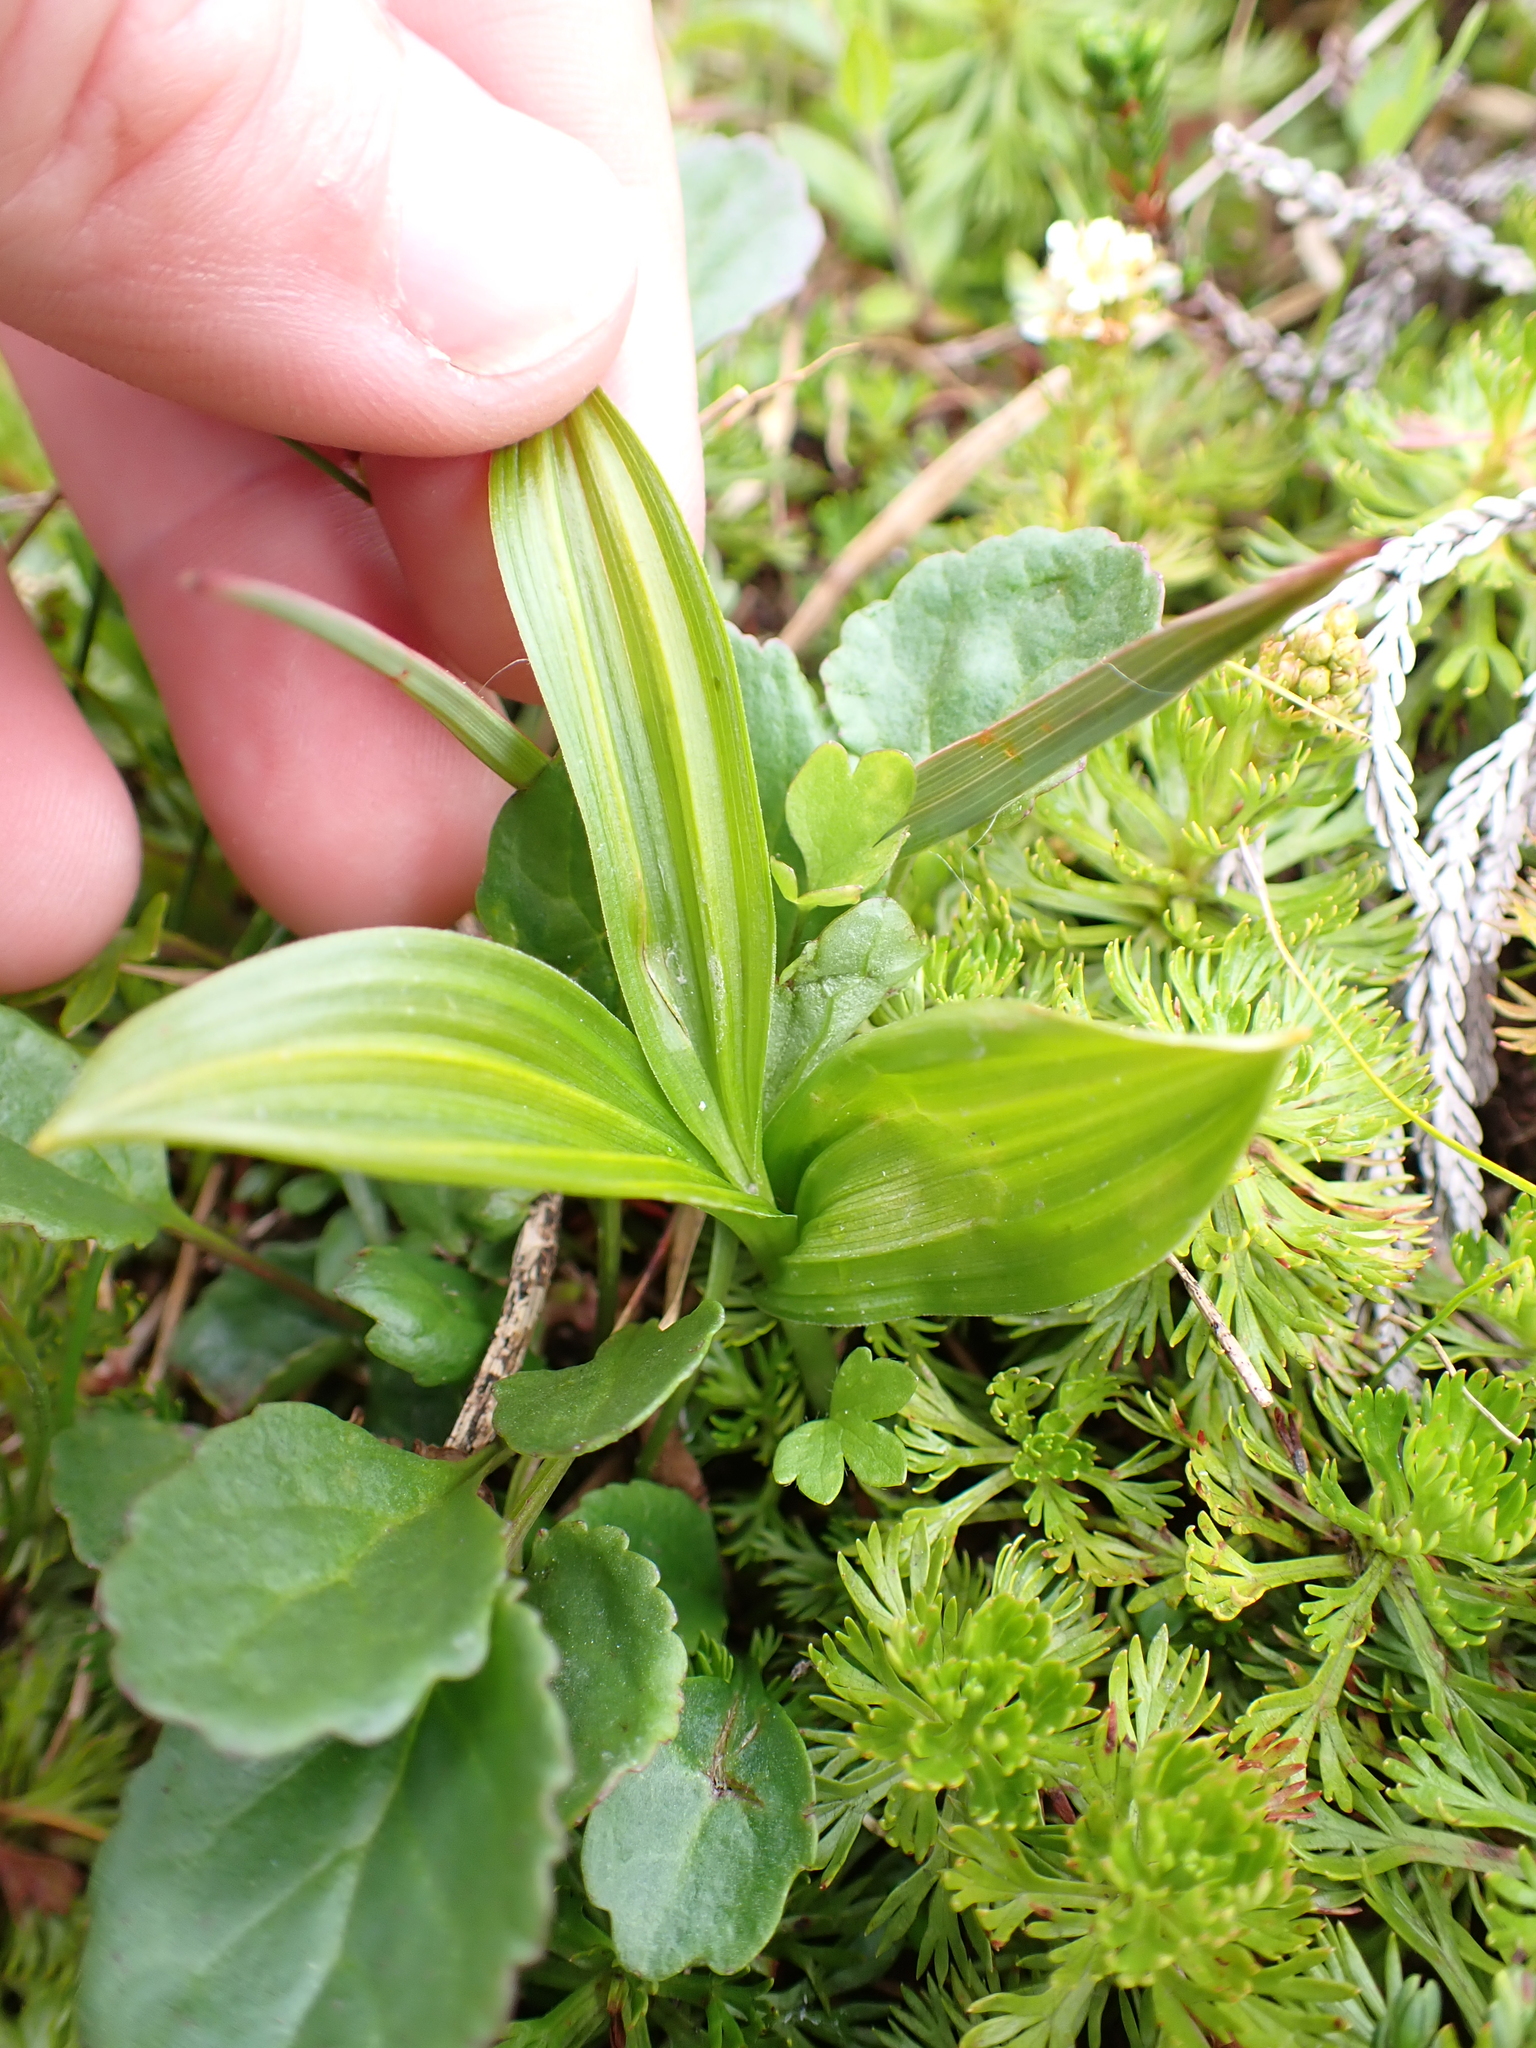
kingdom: Plantae
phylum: Tracheophyta
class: Liliopsida
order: Liliales
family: Melanthiaceae
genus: Veratrum
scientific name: Veratrum viride
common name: American false hellebore
